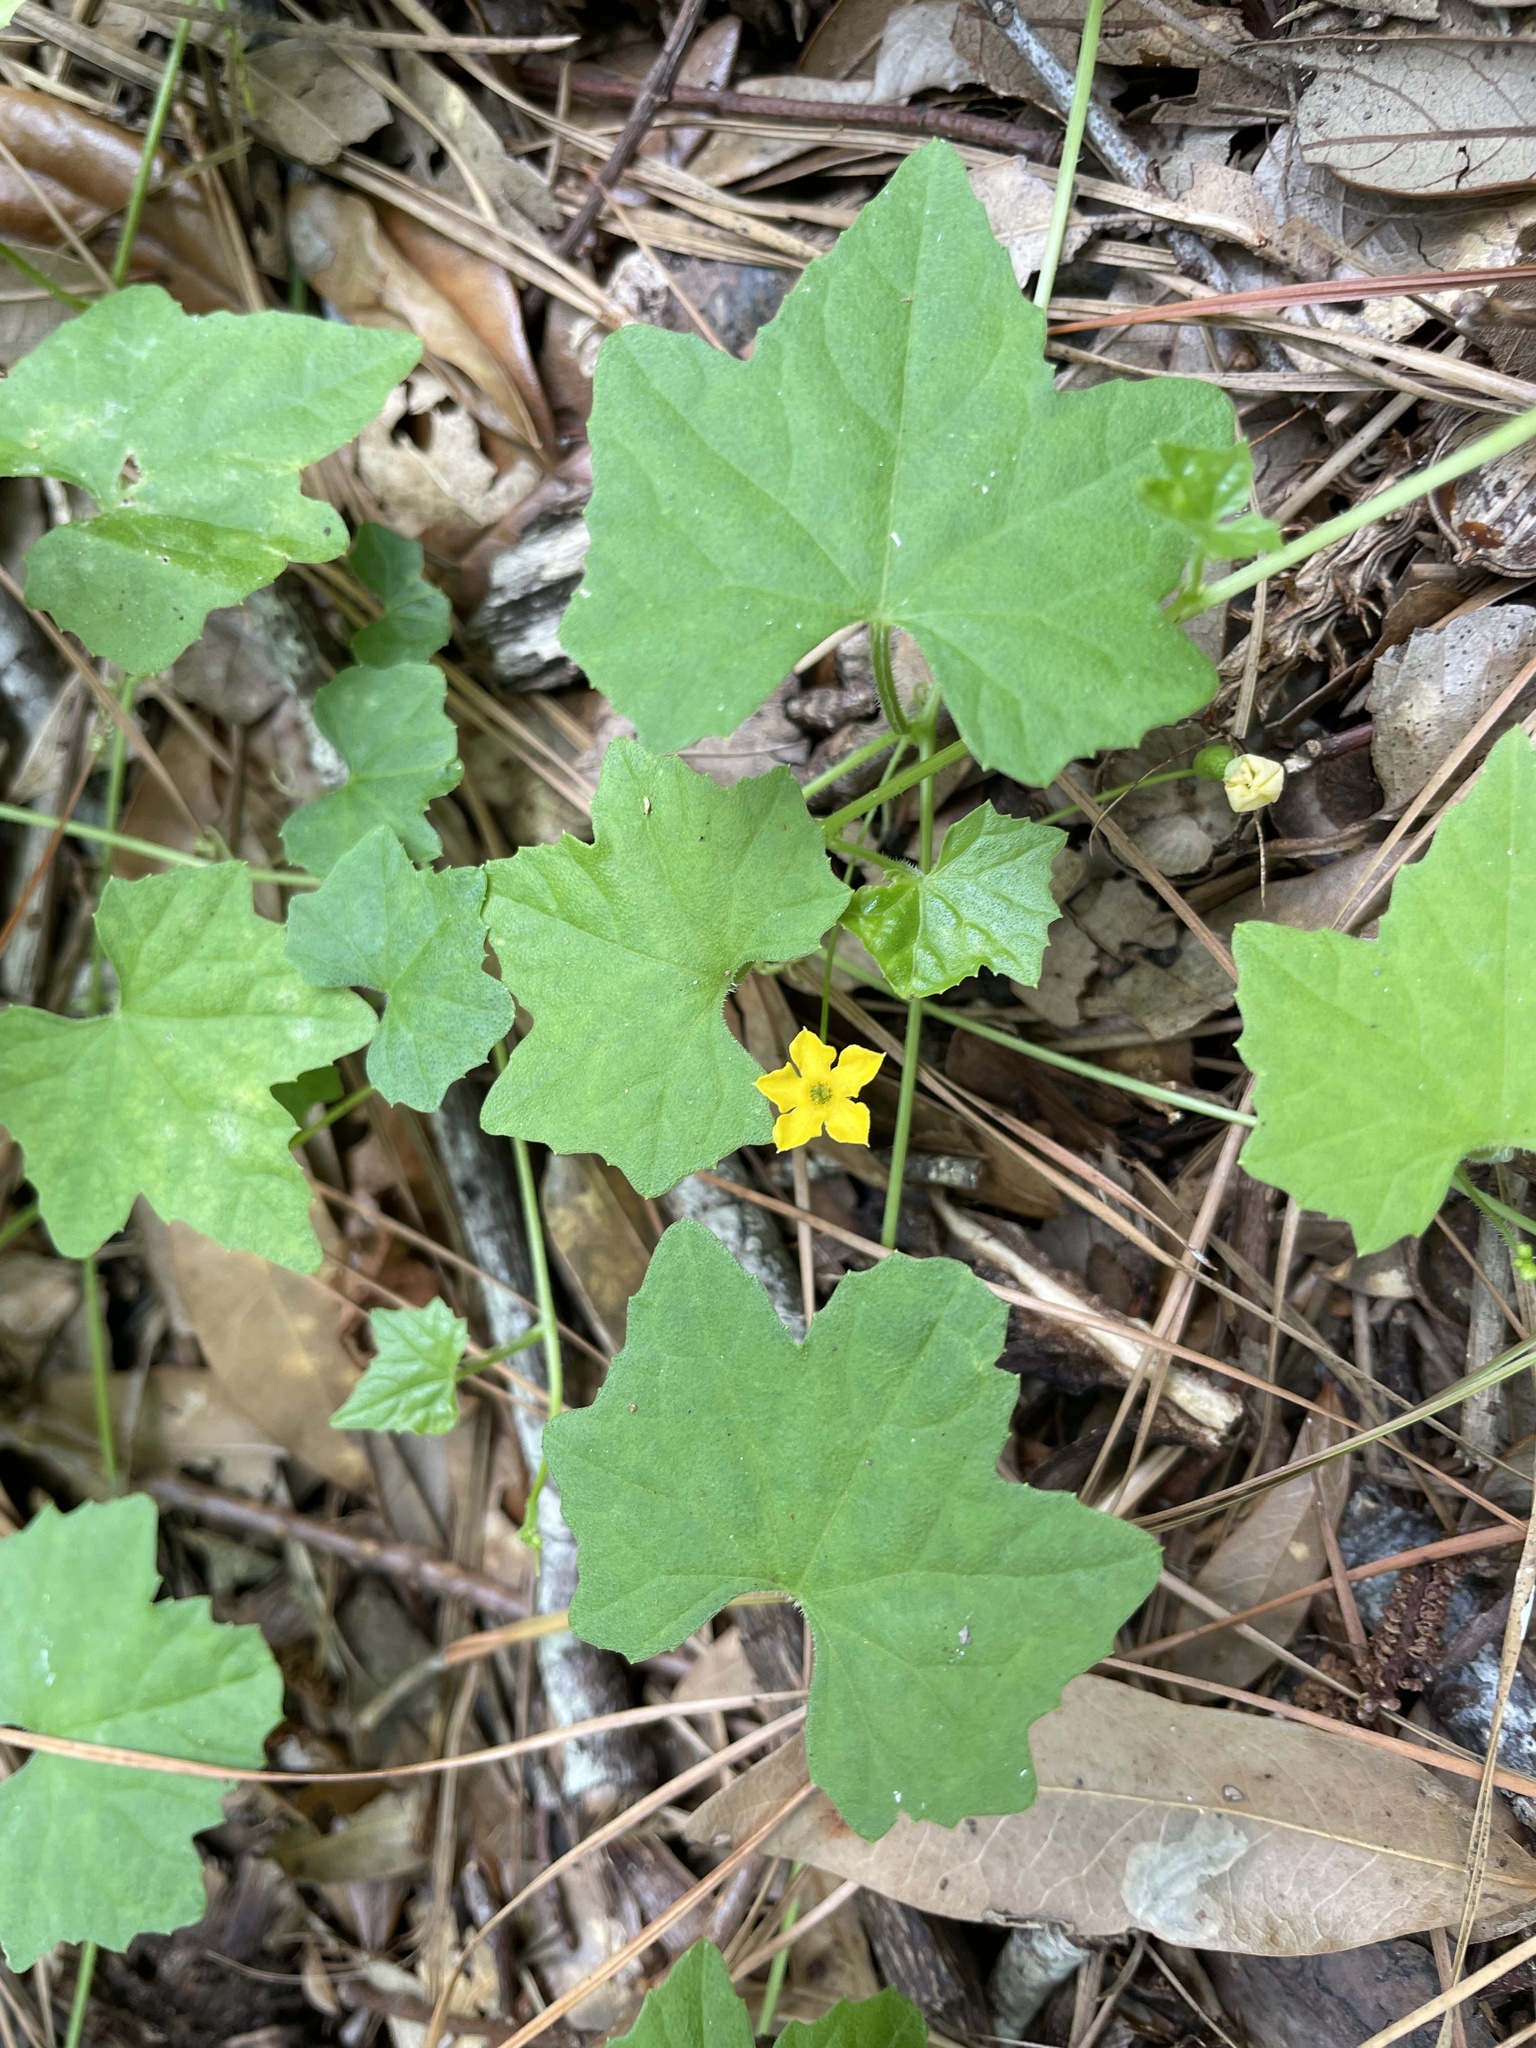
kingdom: Plantae
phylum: Tracheophyta
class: Magnoliopsida
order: Cucurbitales
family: Cucurbitaceae
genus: Melothria
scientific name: Melothria pendula
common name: Creeping-cucumber
